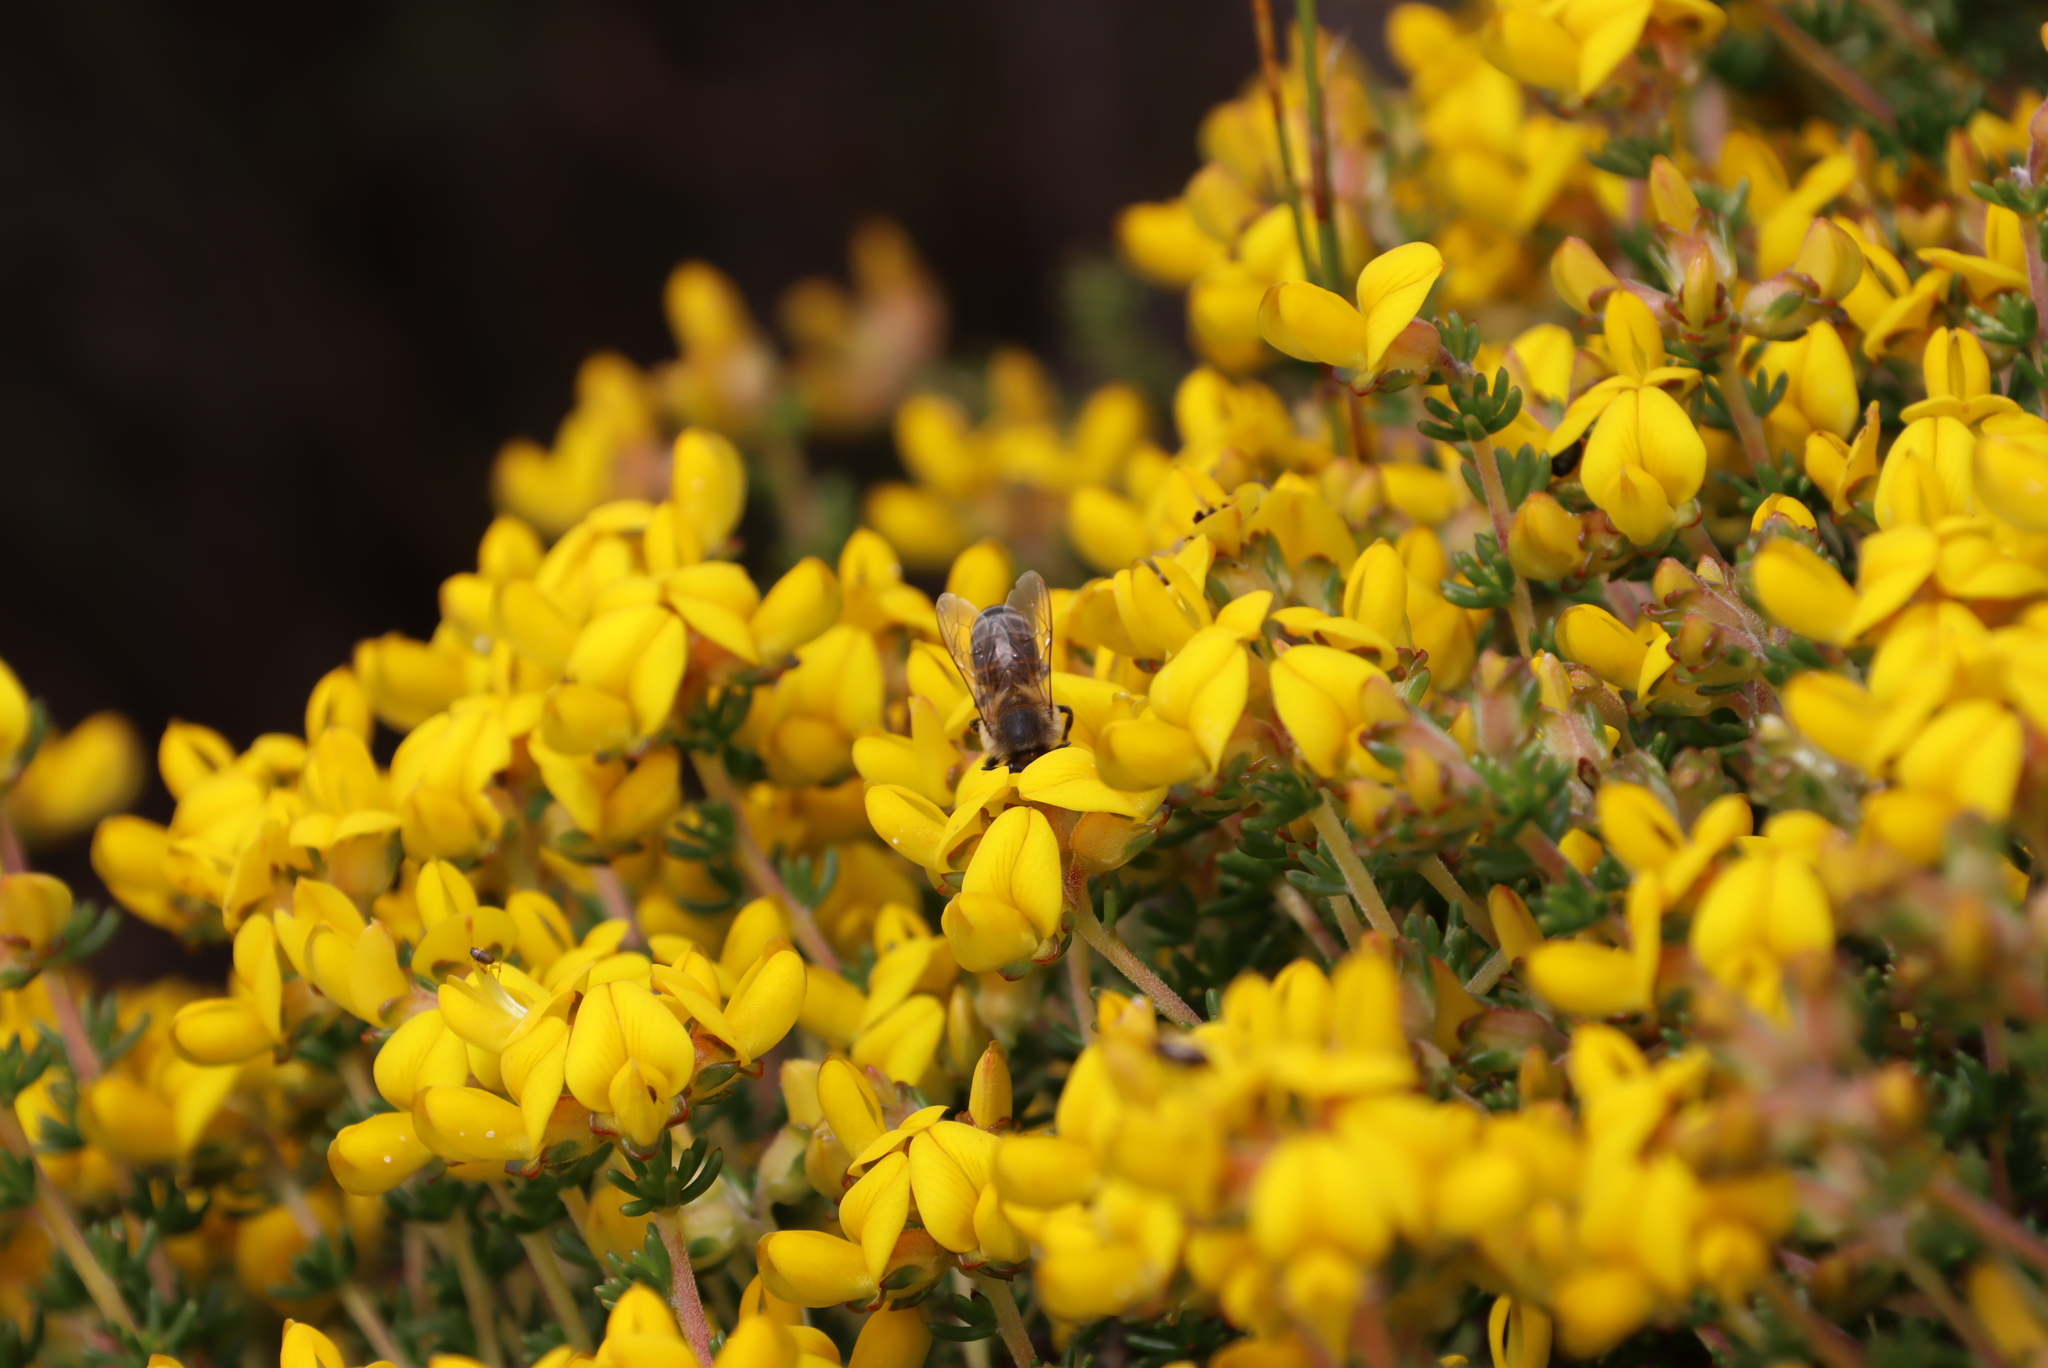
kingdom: Plantae
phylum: Tracheophyta
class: Magnoliopsida
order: Fabales
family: Fabaceae
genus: Aspalathus
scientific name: Aspalathus carnosa
